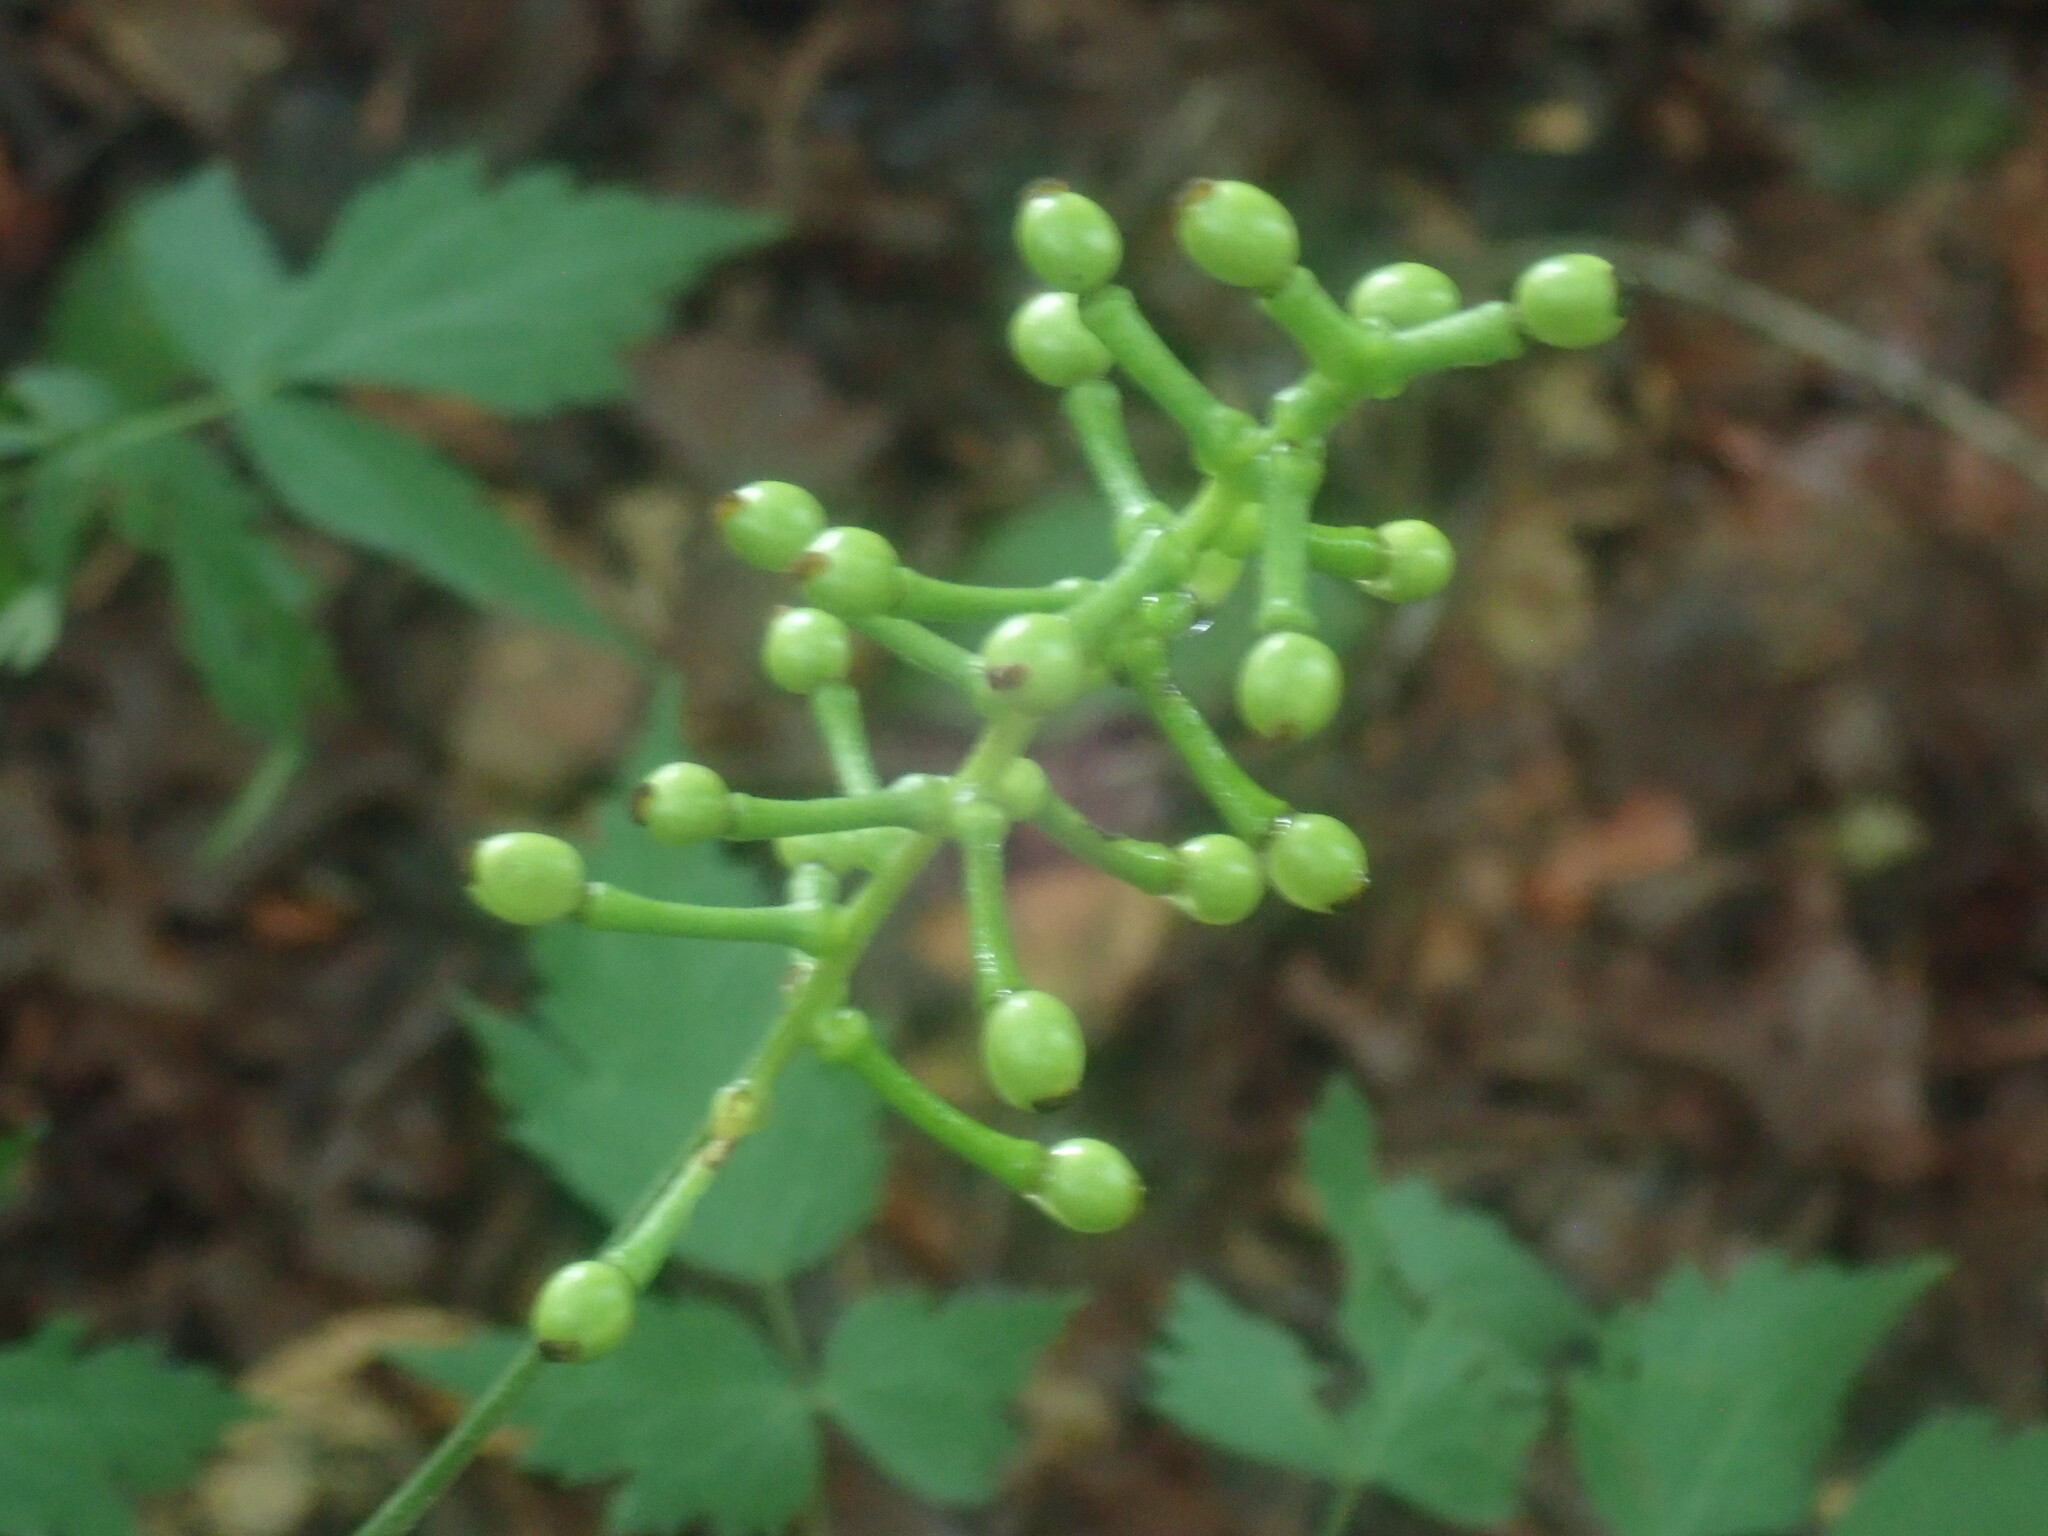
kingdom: Plantae
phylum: Tracheophyta
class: Magnoliopsida
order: Ranunculales
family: Ranunculaceae
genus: Actaea
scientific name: Actaea pachypoda
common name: Doll's-eyes
